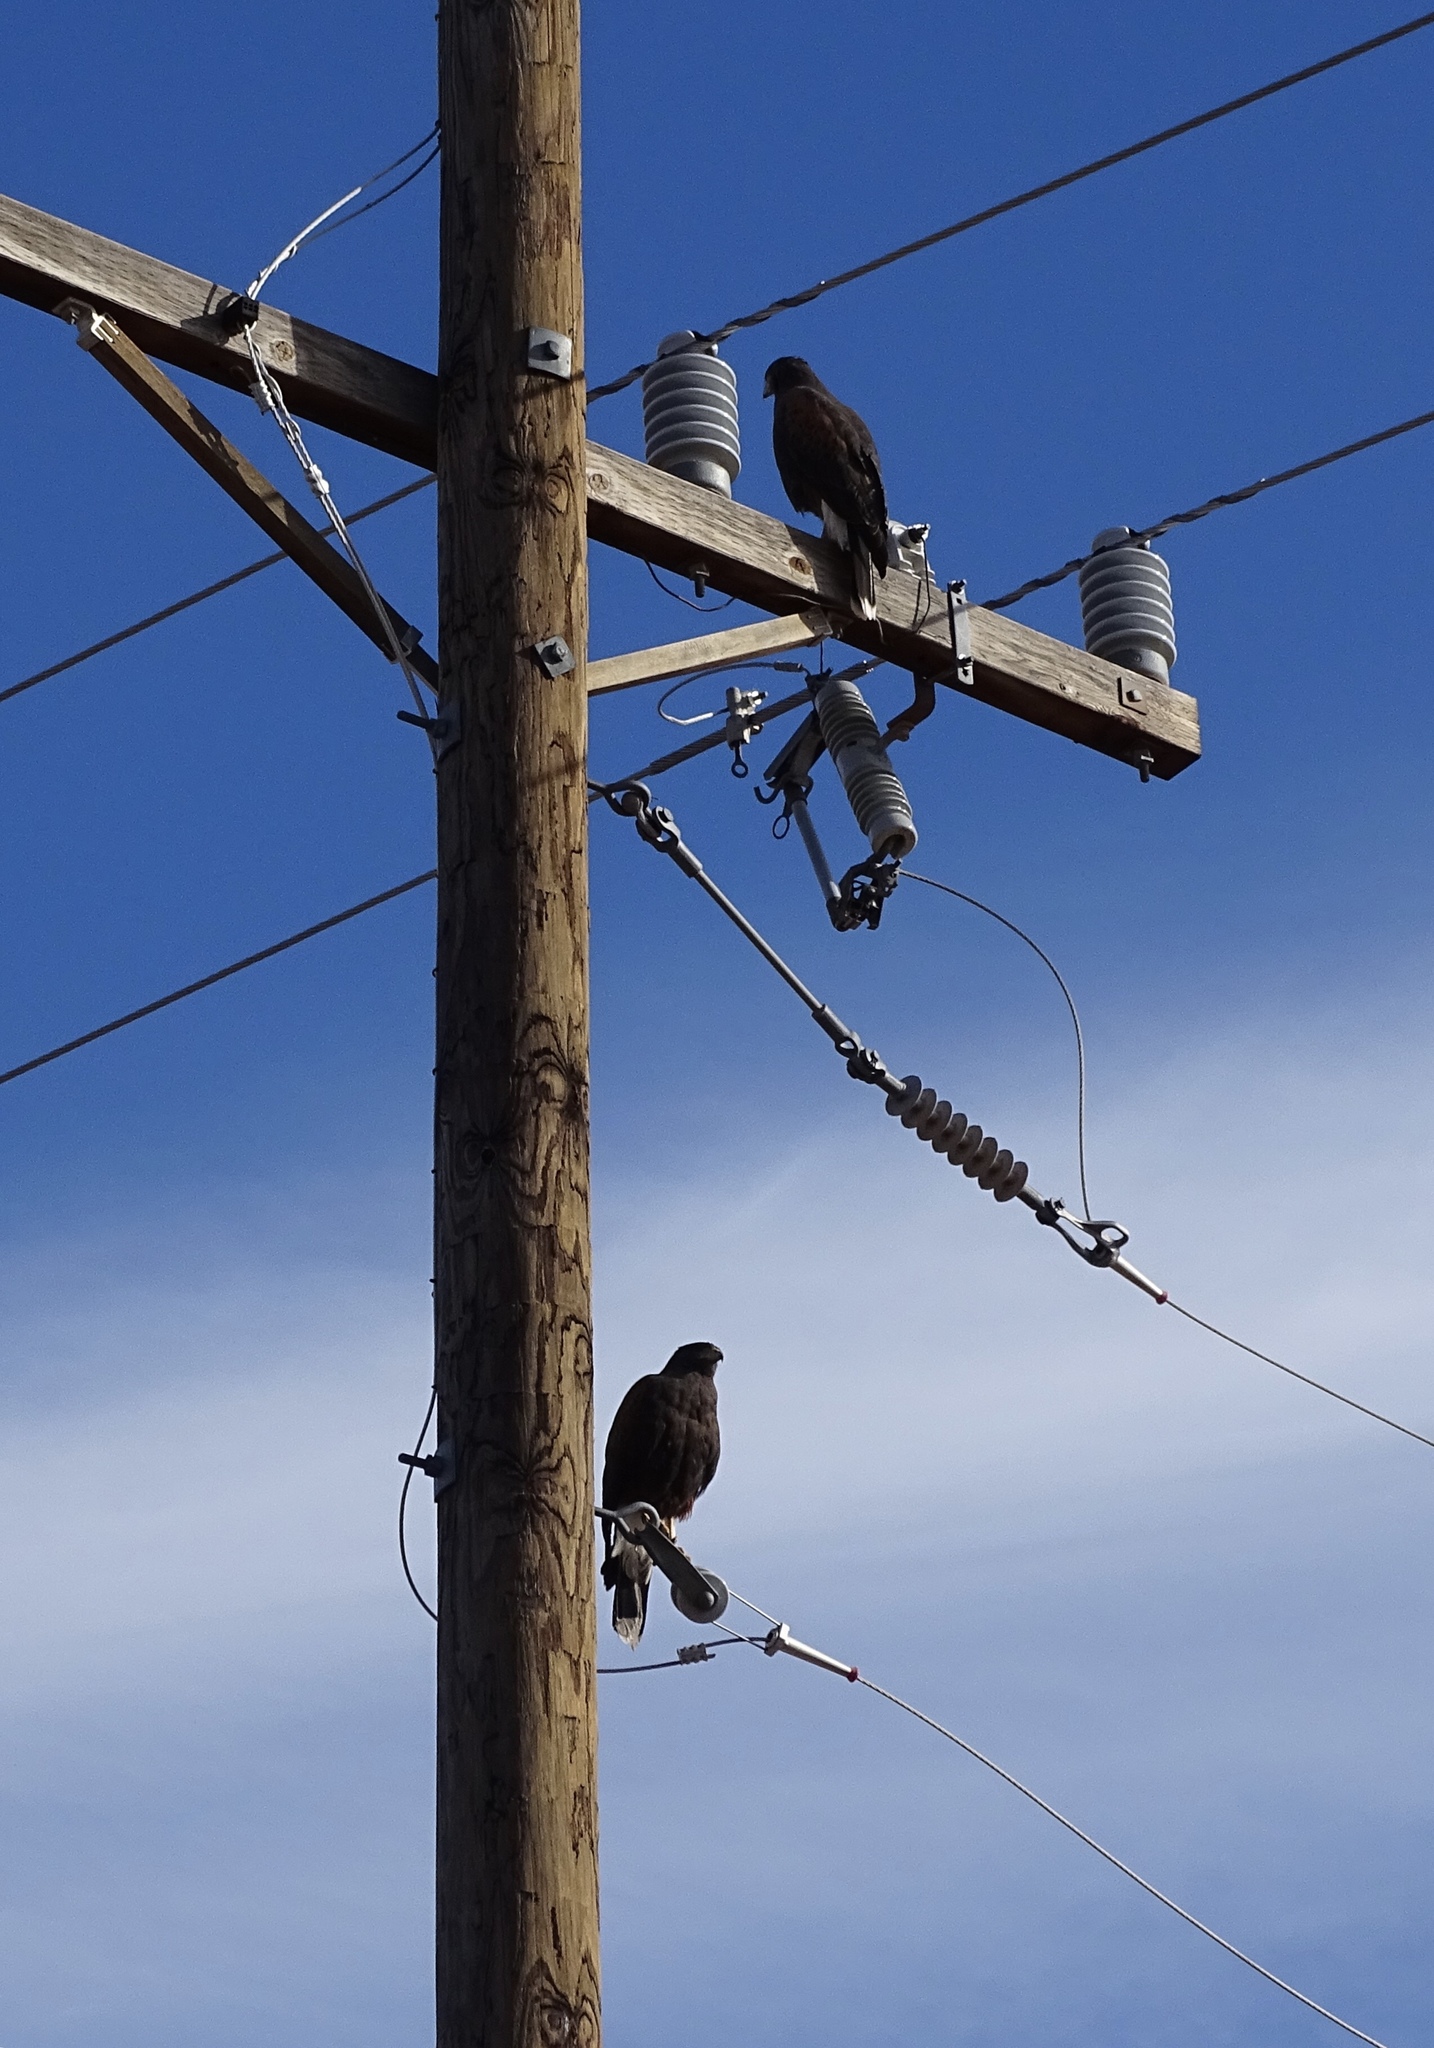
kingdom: Animalia
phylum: Chordata
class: Aves
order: Accipitriformes
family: Accipitridae
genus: Parabuteo
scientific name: Parabuteo unicinctus
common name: Harris's hawk
